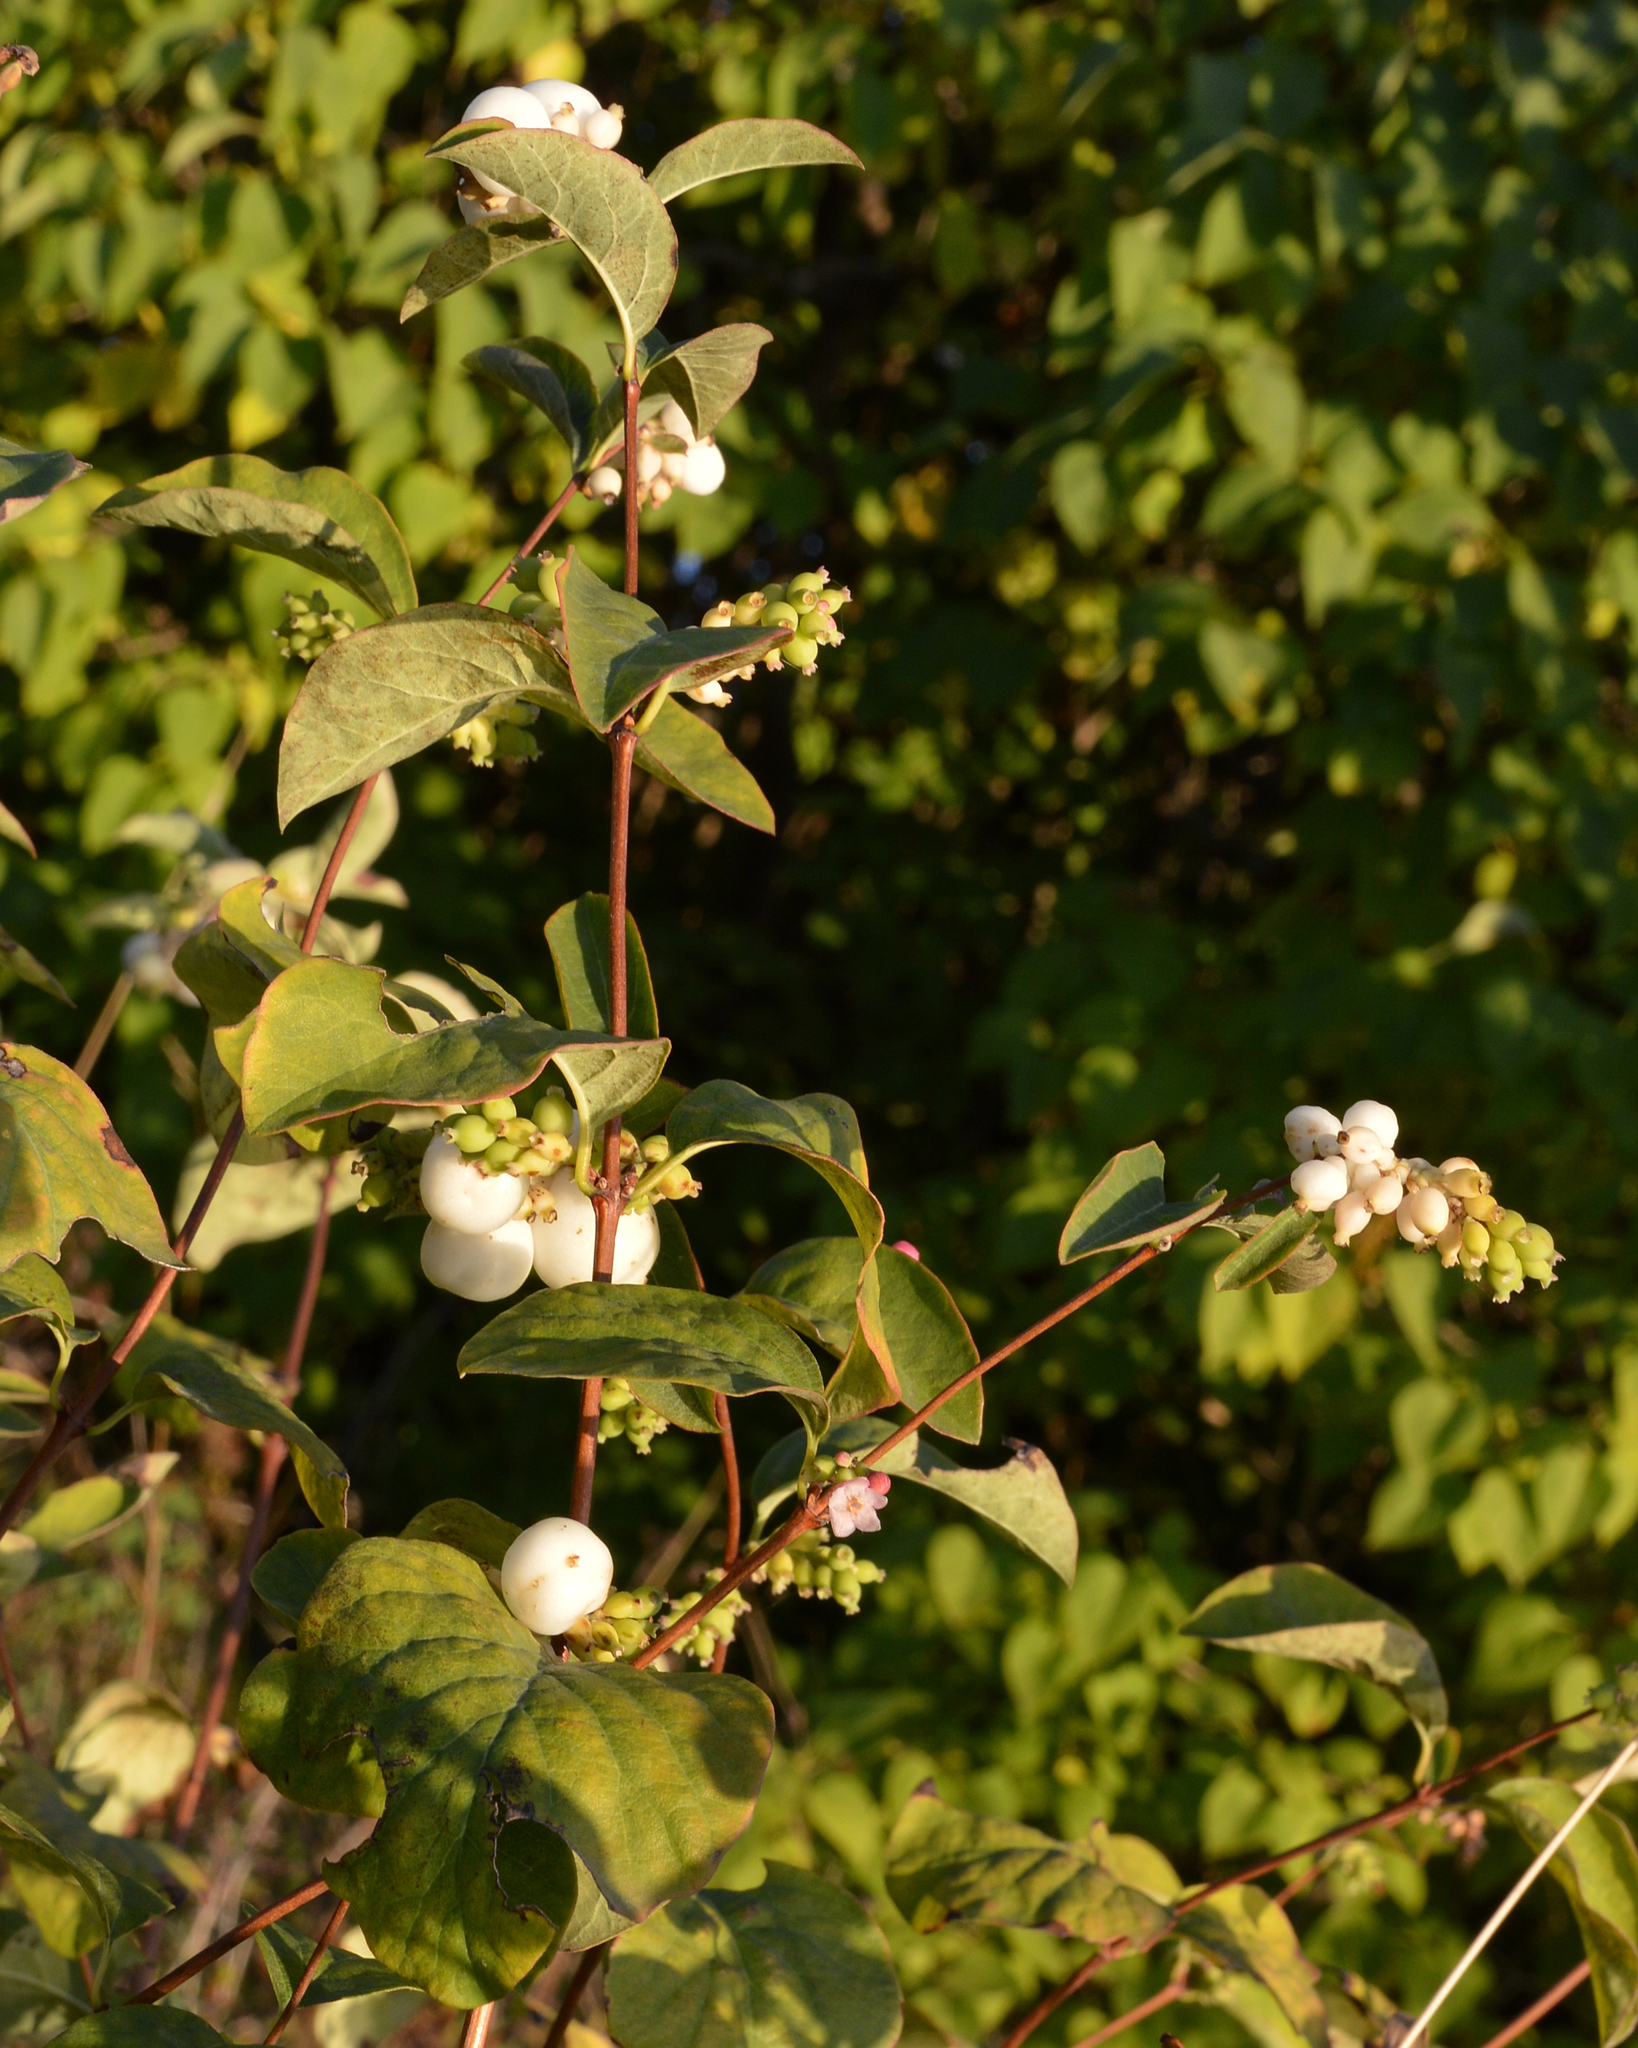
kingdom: Plantae
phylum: Tracheophyta
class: Magnoliopsida
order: Dipsacales
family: Caprifoliaceae
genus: Symphoricarpos
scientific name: Symphoricarpos albus
